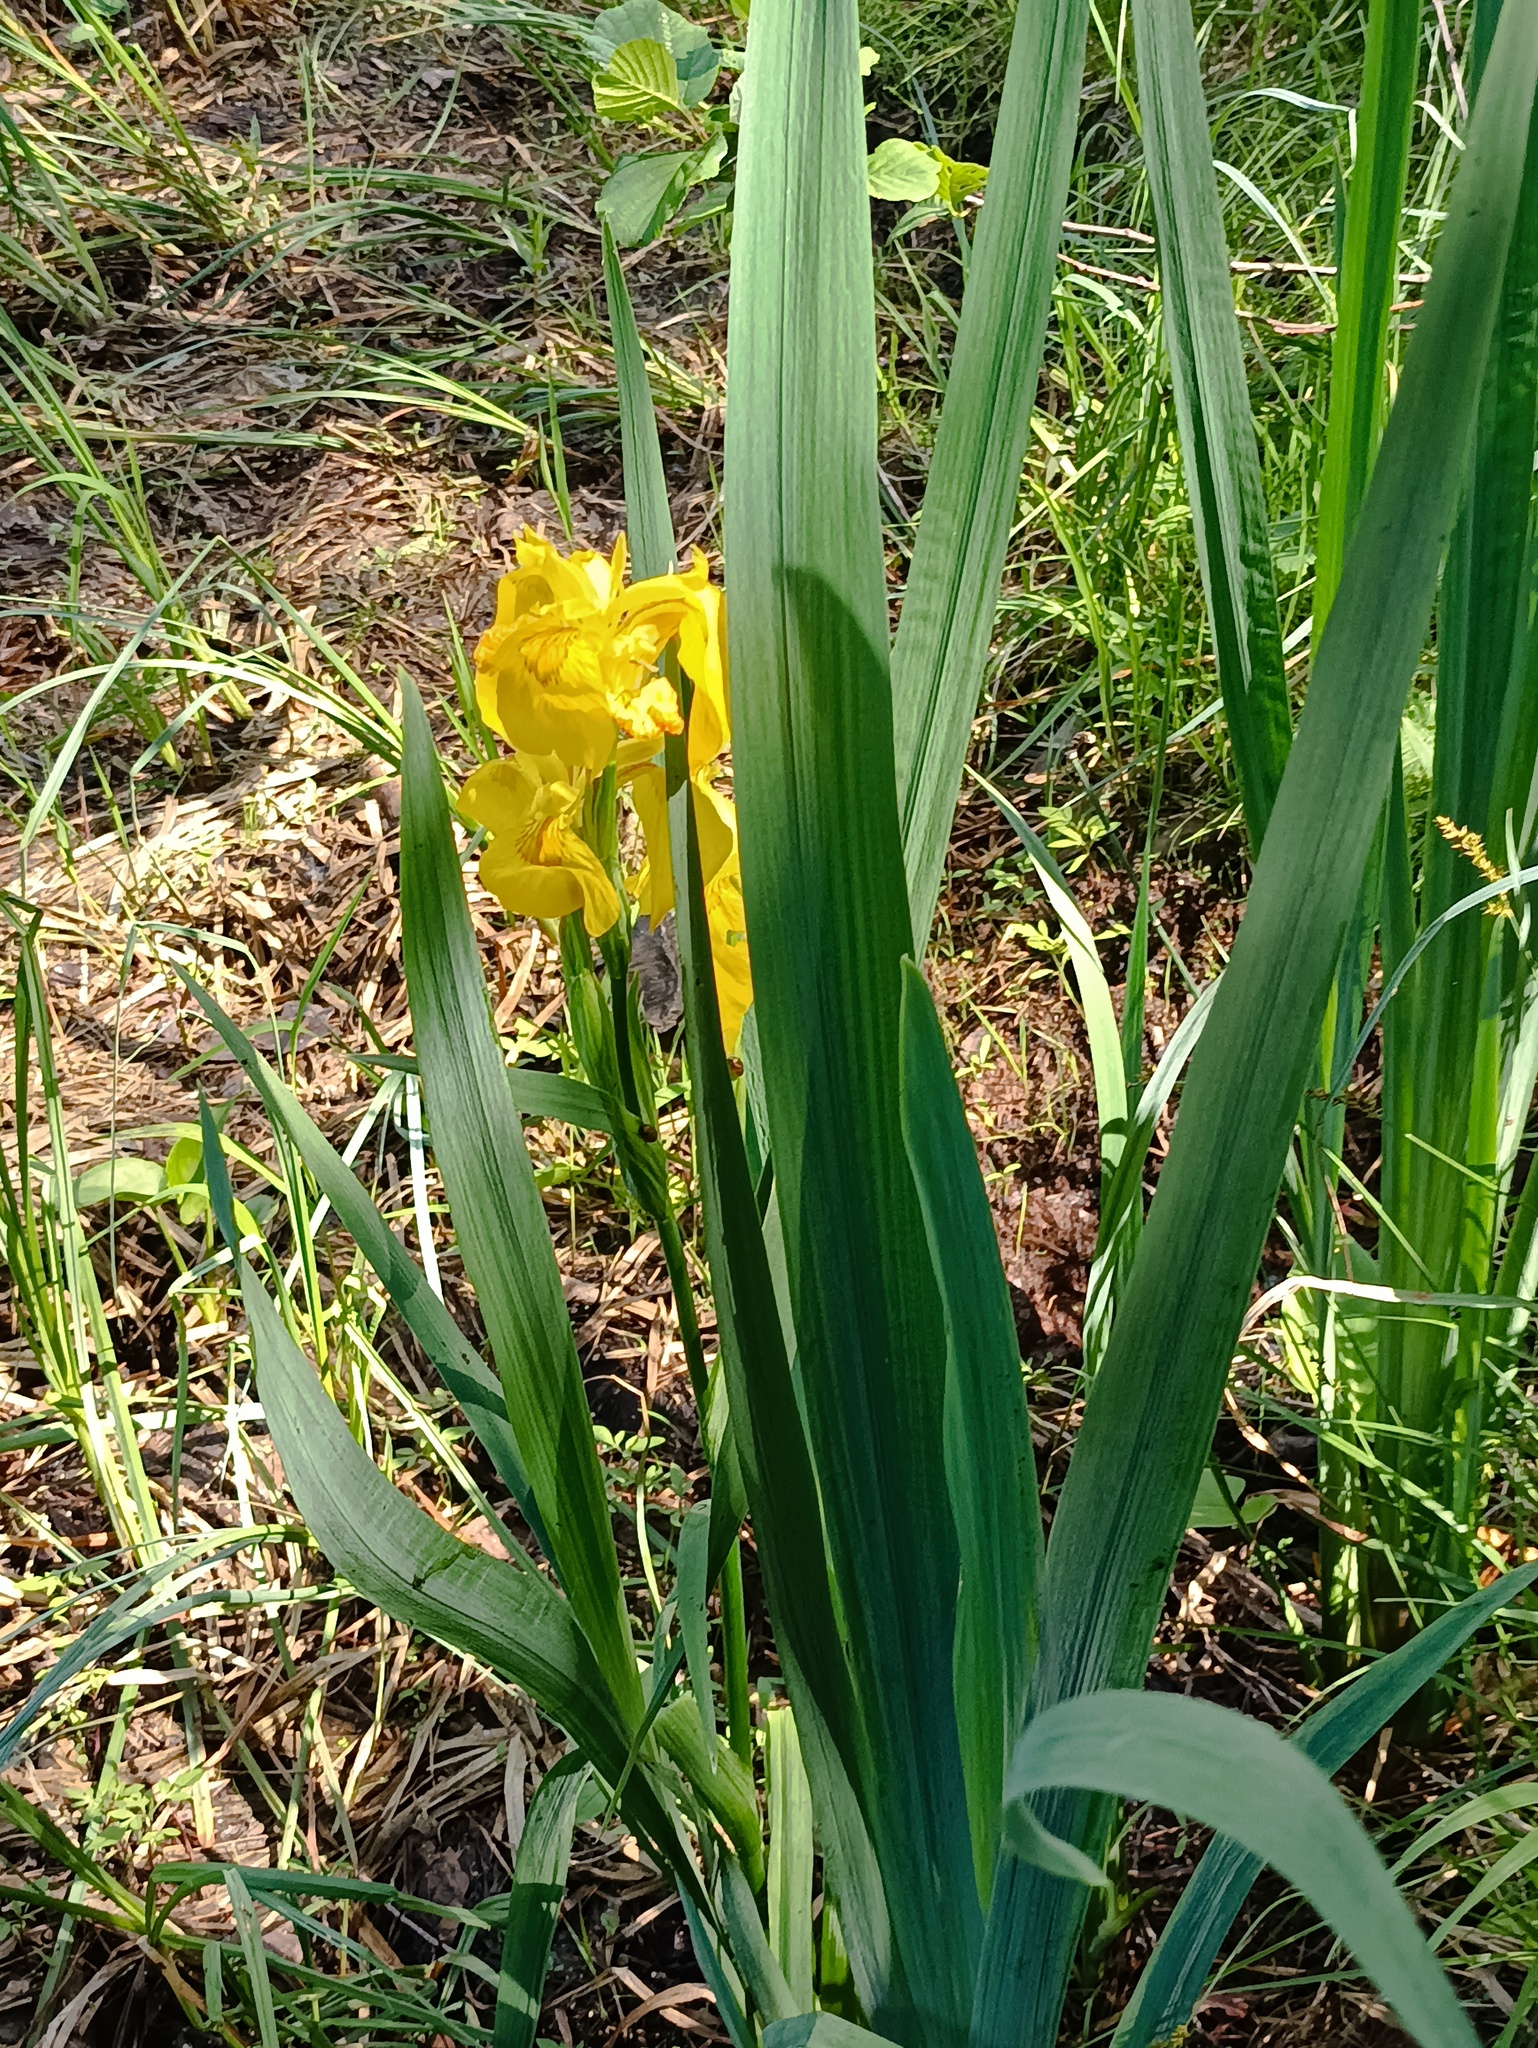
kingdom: Plantae
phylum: Tracheophyta
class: Liliopsida
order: Asparagales
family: Iridaceae
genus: Iris
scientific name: Iris pseudacorus
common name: Yellow flag
